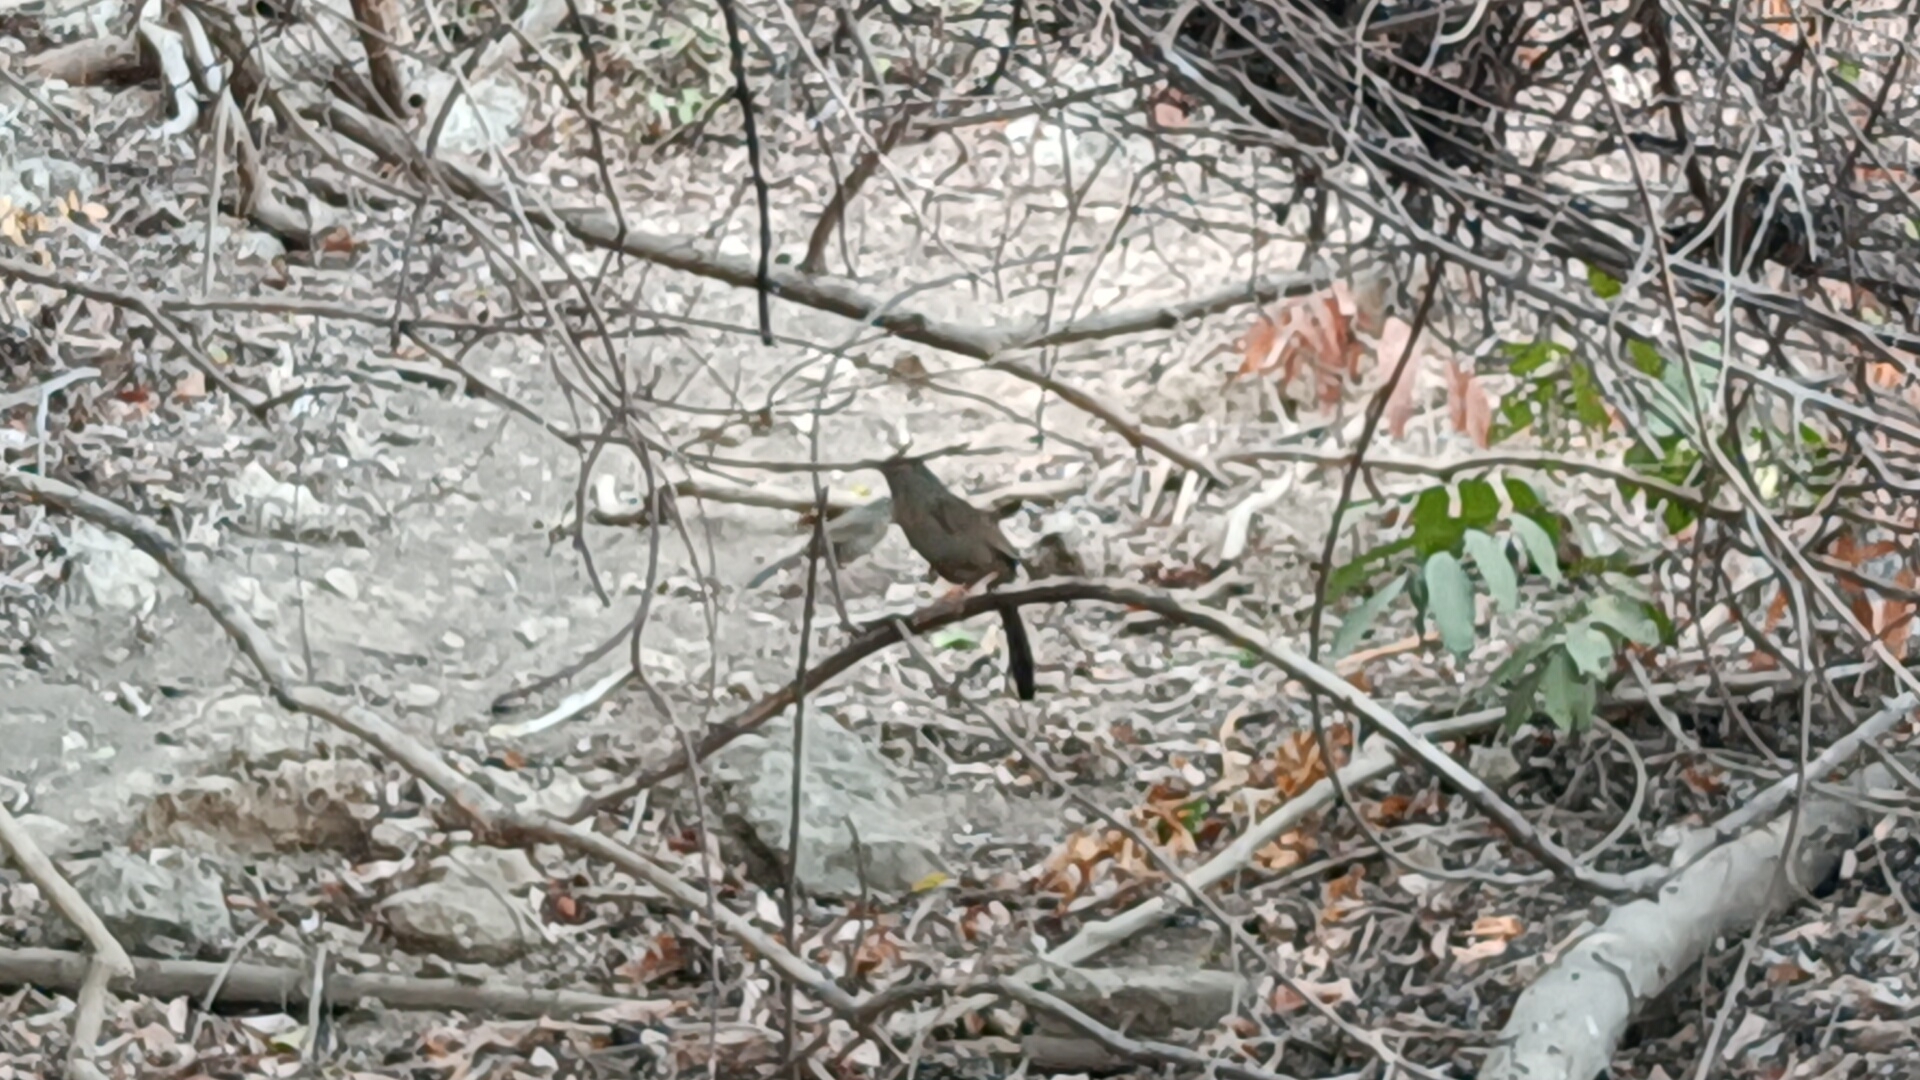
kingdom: Animalia
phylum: Chordata
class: Aves
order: Passeriformes
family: Leiothrichidae
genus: Garrulax
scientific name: Garrulax taewanus
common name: Taiwan hwamei
